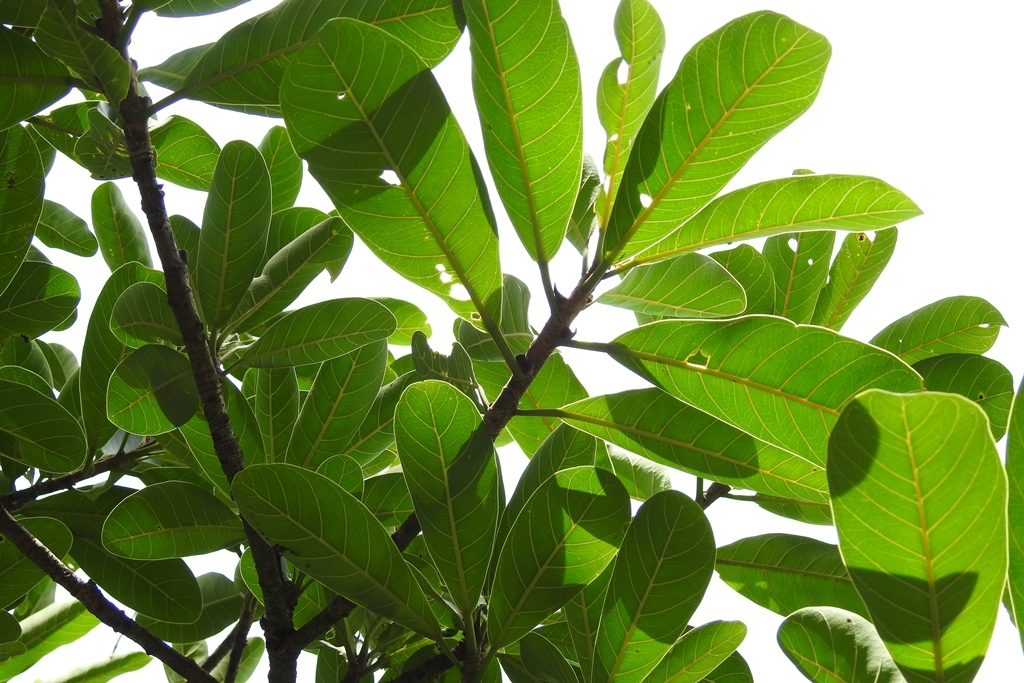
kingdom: Plantae
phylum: Tracheophyta
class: Magnoliopsida
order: Rosales
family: Moraceae
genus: Ficus
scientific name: Ficus obtusifolia
